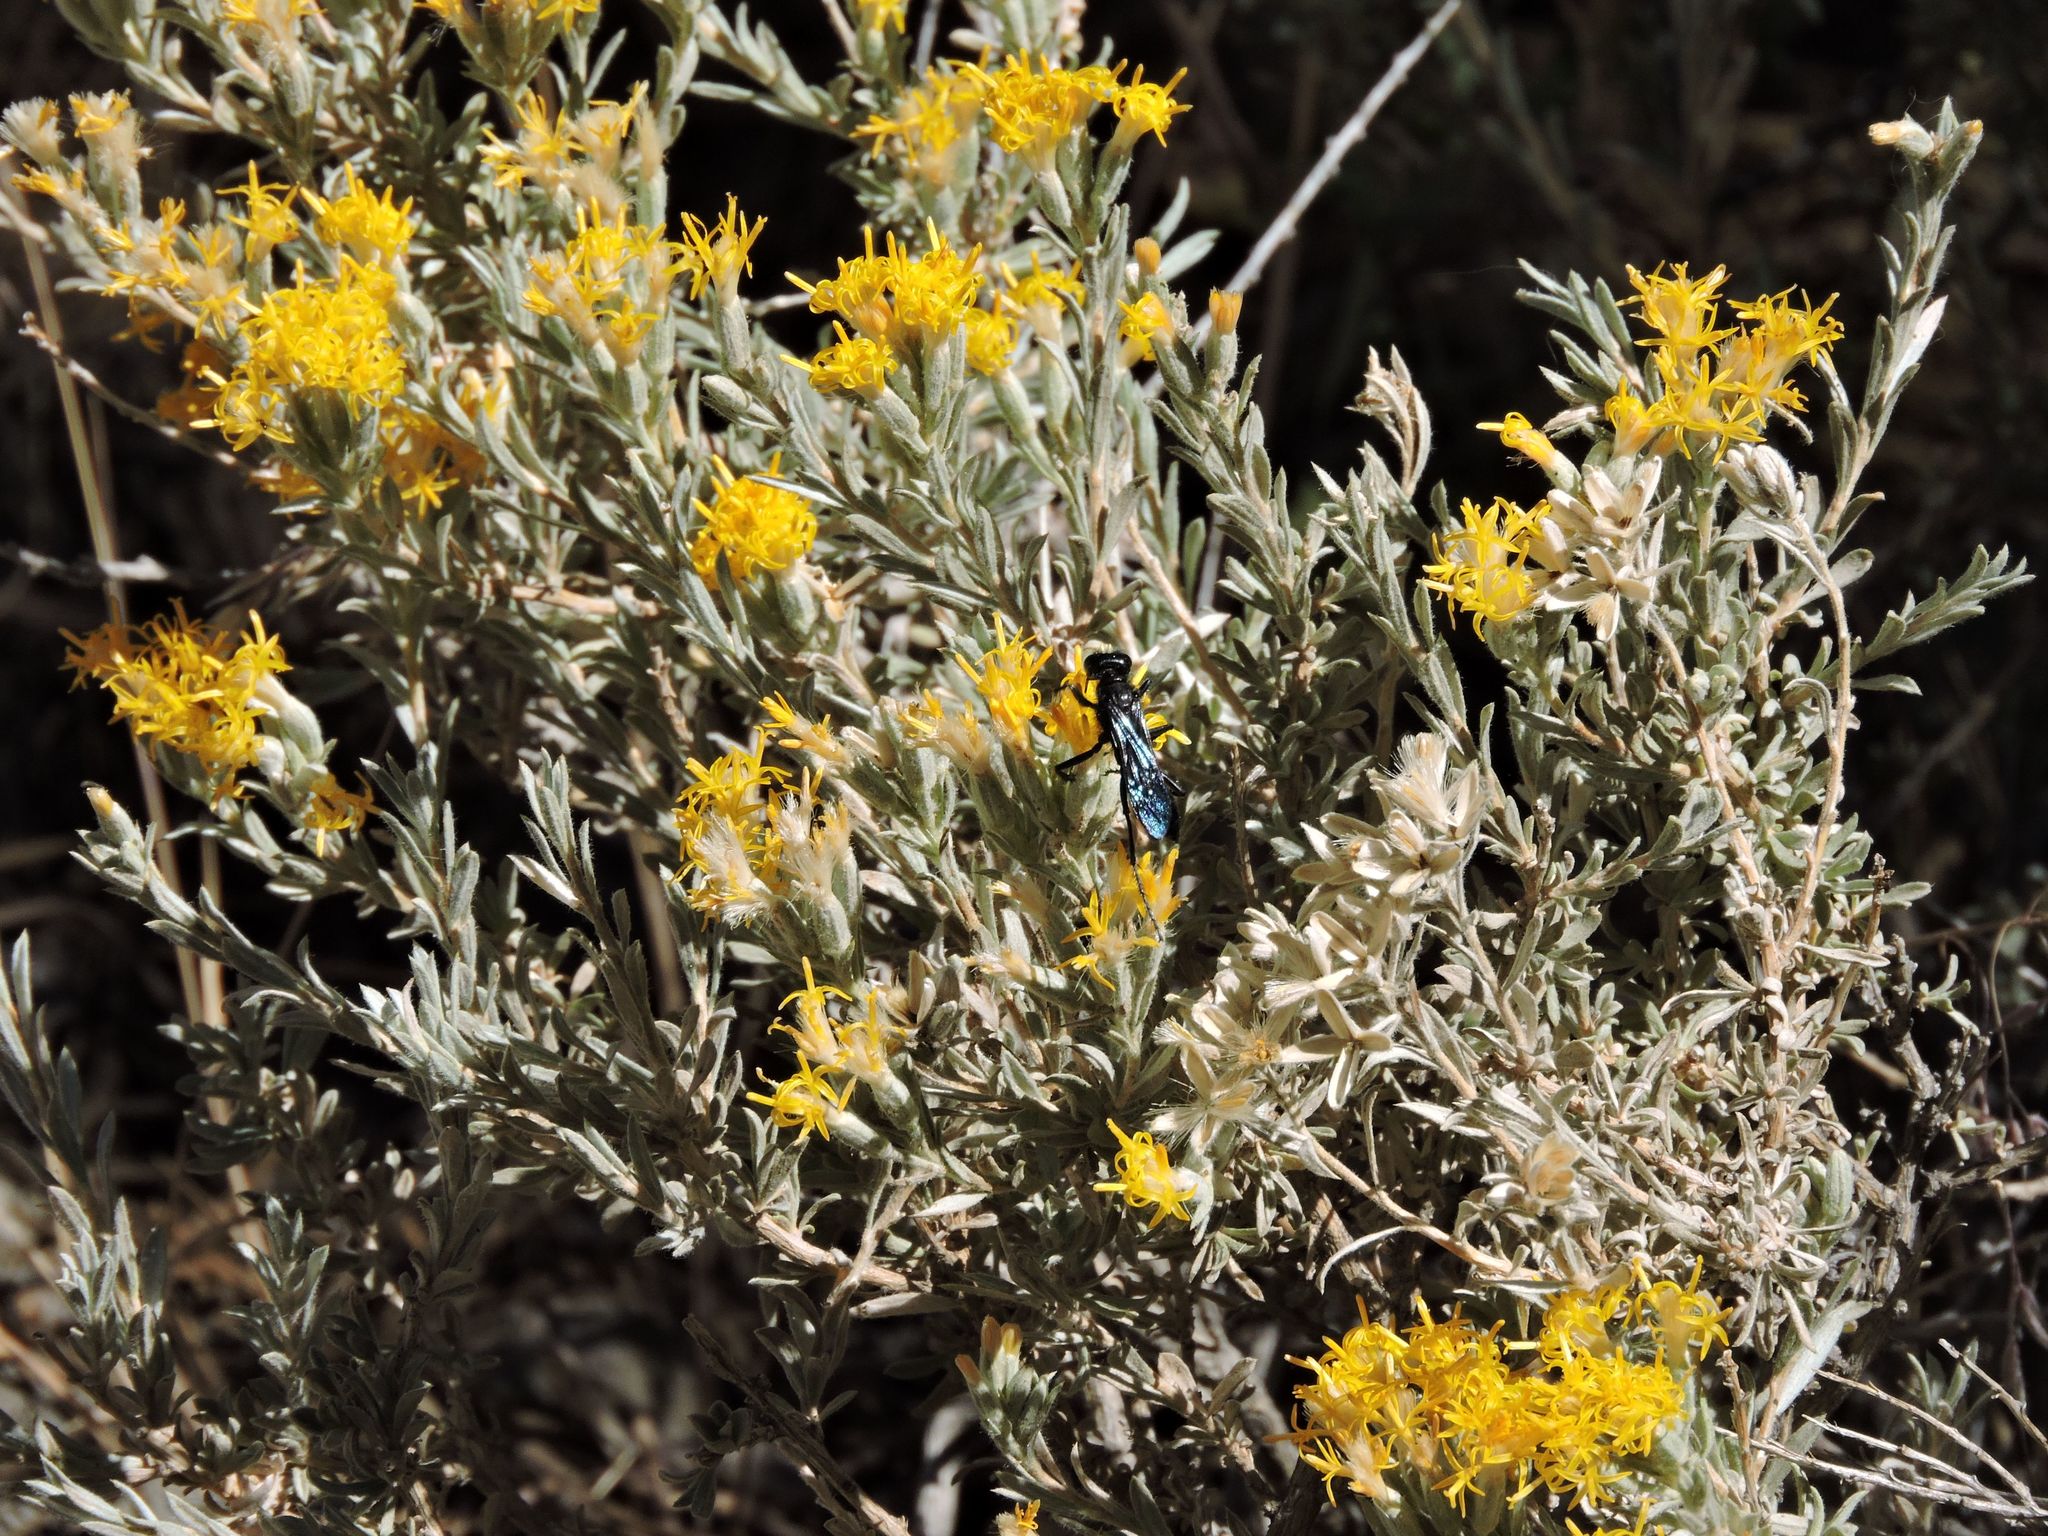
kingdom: Plantae
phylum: Tracheophyta
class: Magnoliopsida
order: Asterales
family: Asteraceae
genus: Tetradymia
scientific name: Tetradymia canescens
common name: Spineless horsebrush
